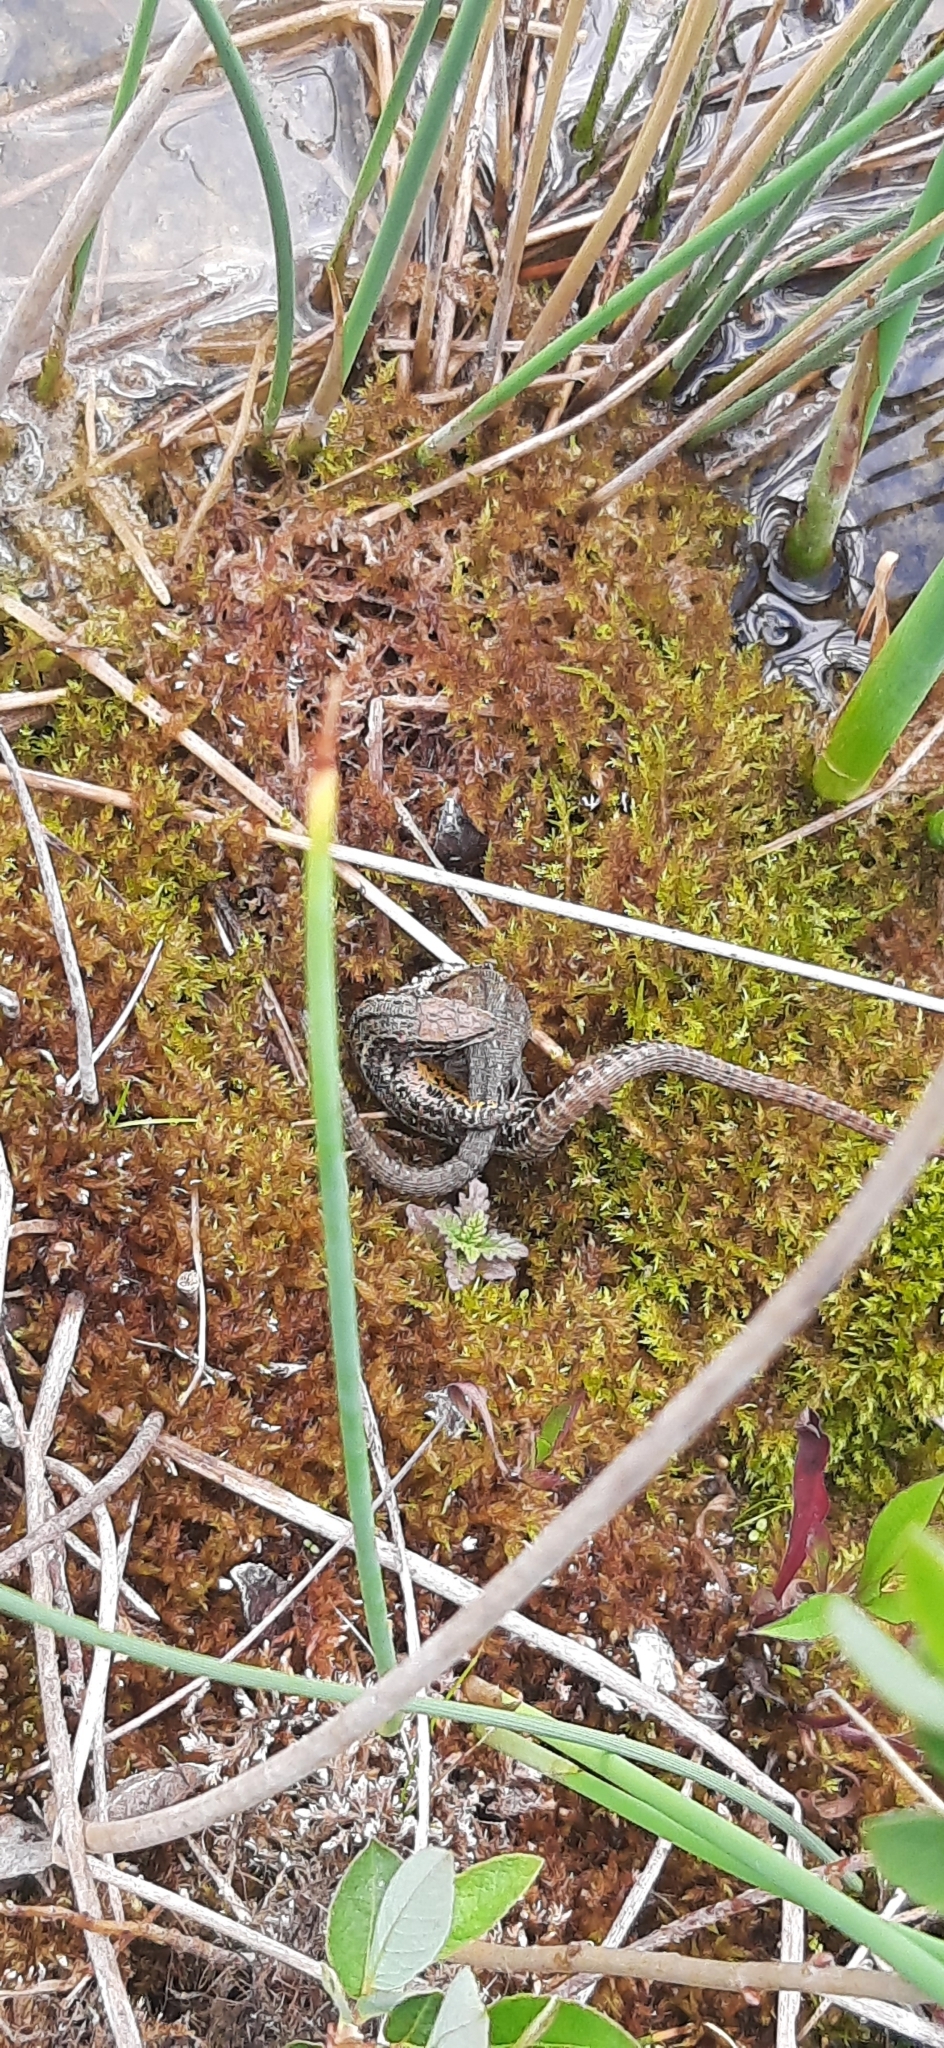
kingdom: Animalia
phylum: Chordata
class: Squamata
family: Lacertidae
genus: Zootoca
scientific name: Zootoca vivipara
